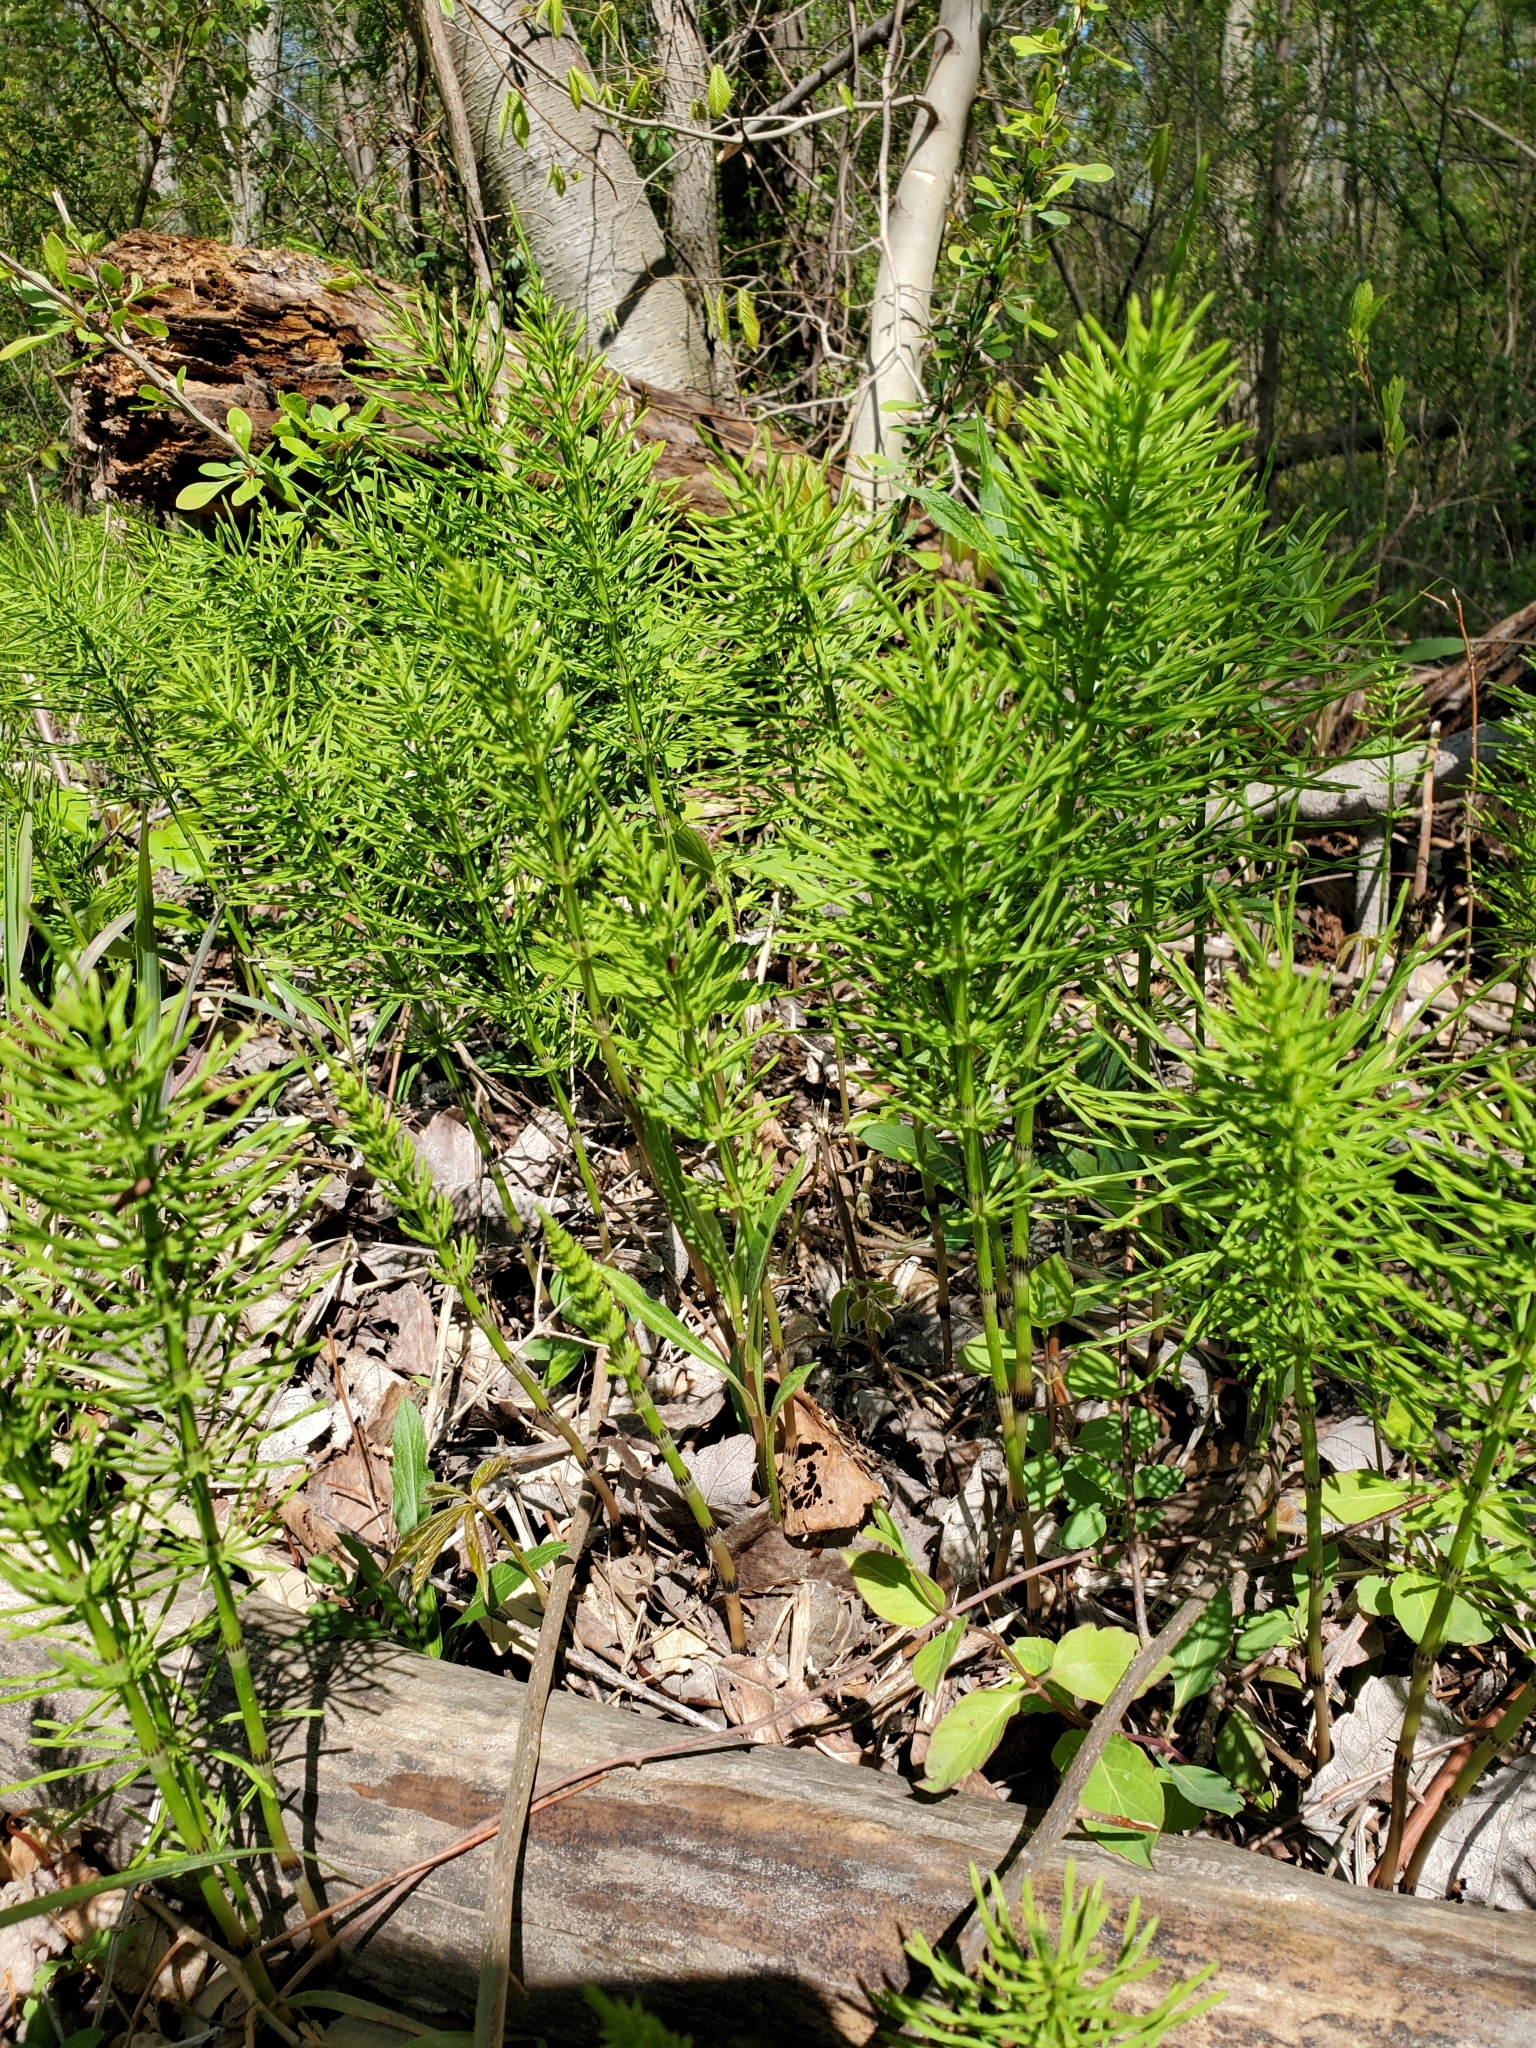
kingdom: Plantae
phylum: Tracheophyta
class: Polypodiopsida
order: Equisetales
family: Equisetaceae
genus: Equisetum
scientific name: Equisetum arvense
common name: Field horsetail
